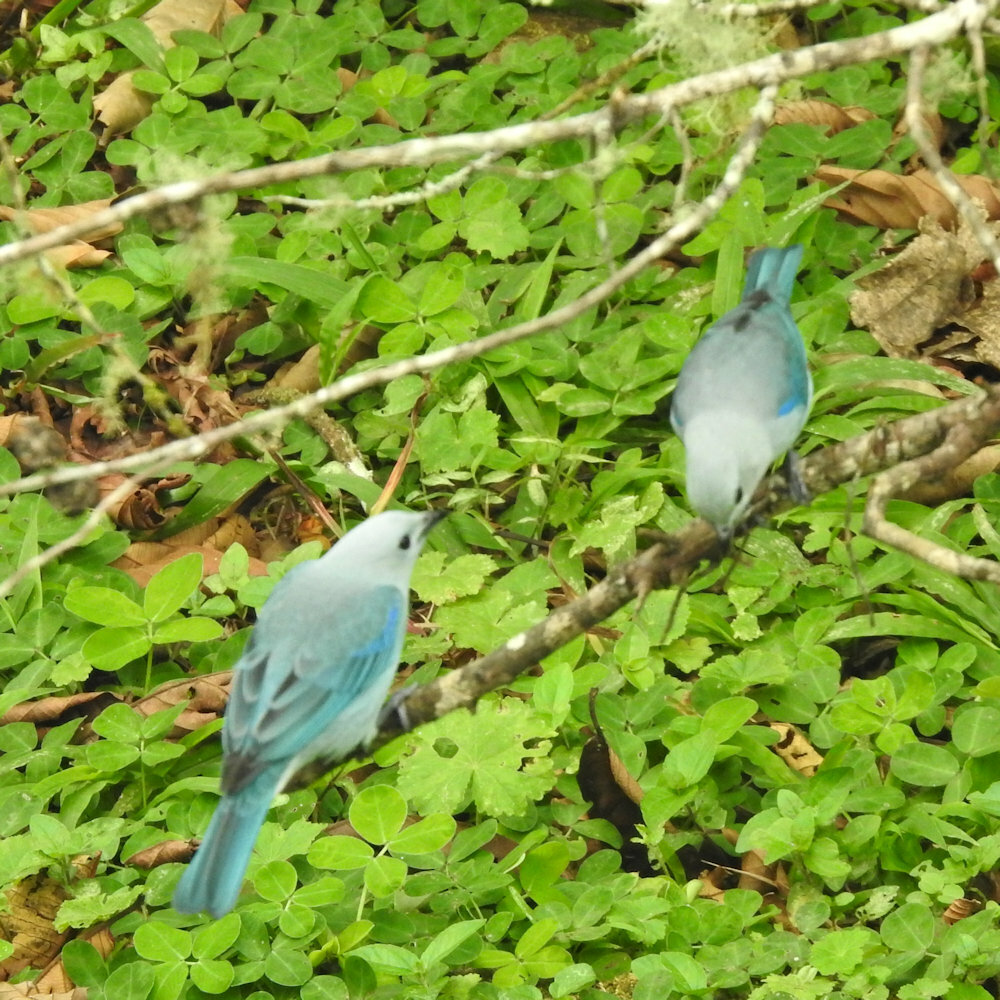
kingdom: Animalia
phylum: Chordata
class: Aves
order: Passeriformes
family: Thraupidae
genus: Thraupis
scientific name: Thraupis episcopus
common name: Blue-grey tanager
